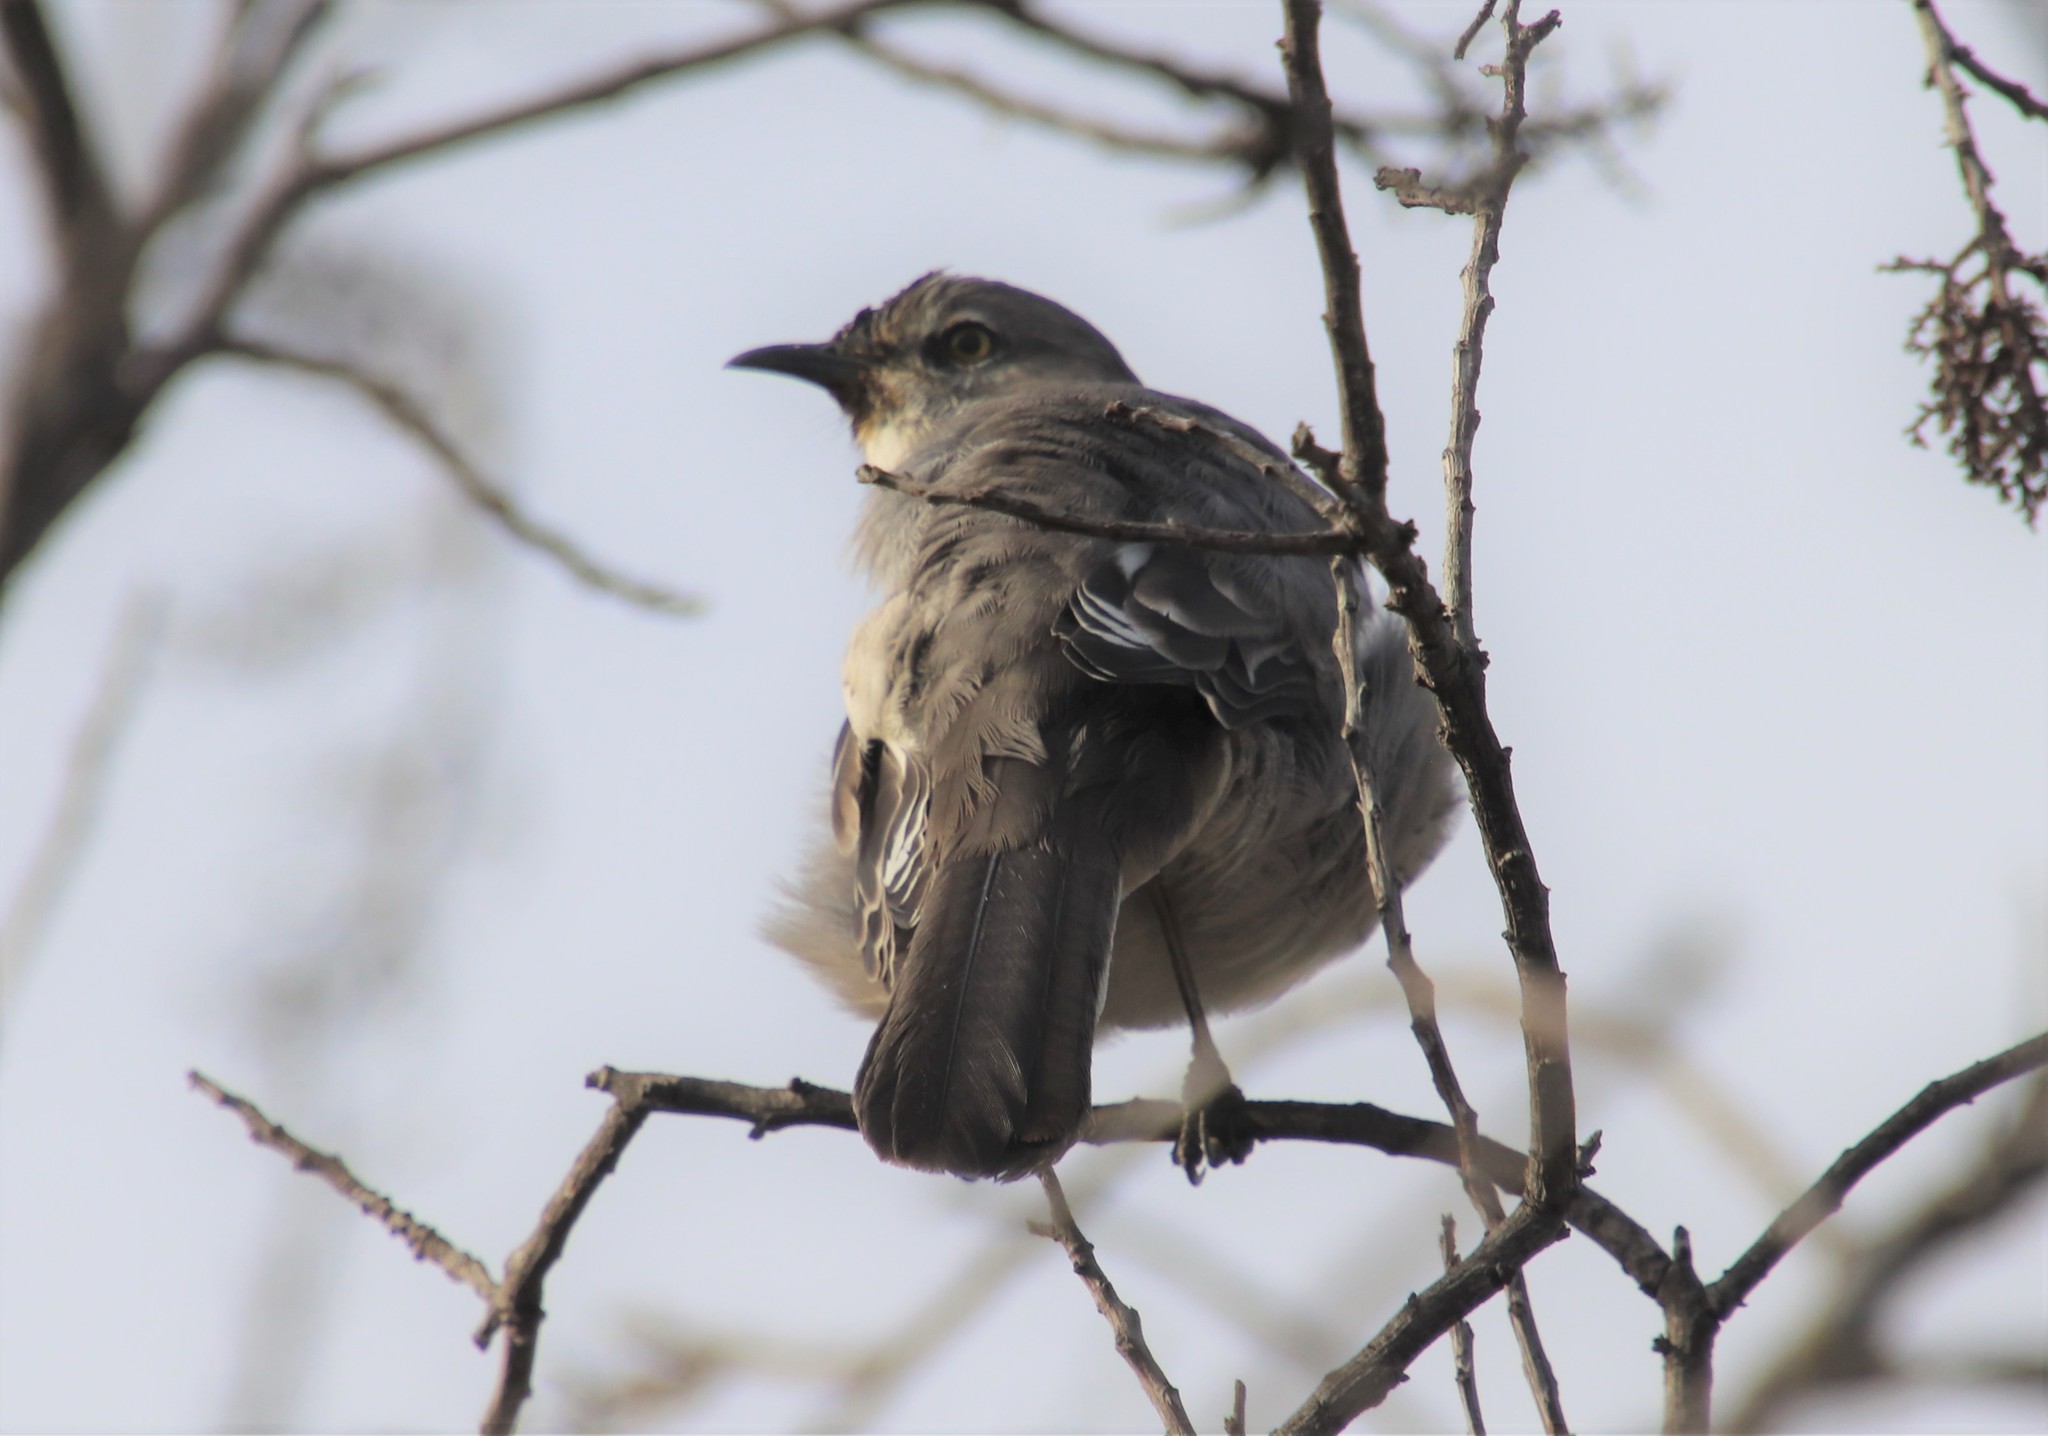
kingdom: Animalia
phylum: Chordata
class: Aves
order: Passeriformes
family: Mimidae
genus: Mimus
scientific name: Mimus polyglottos
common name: Northern mockingbird
